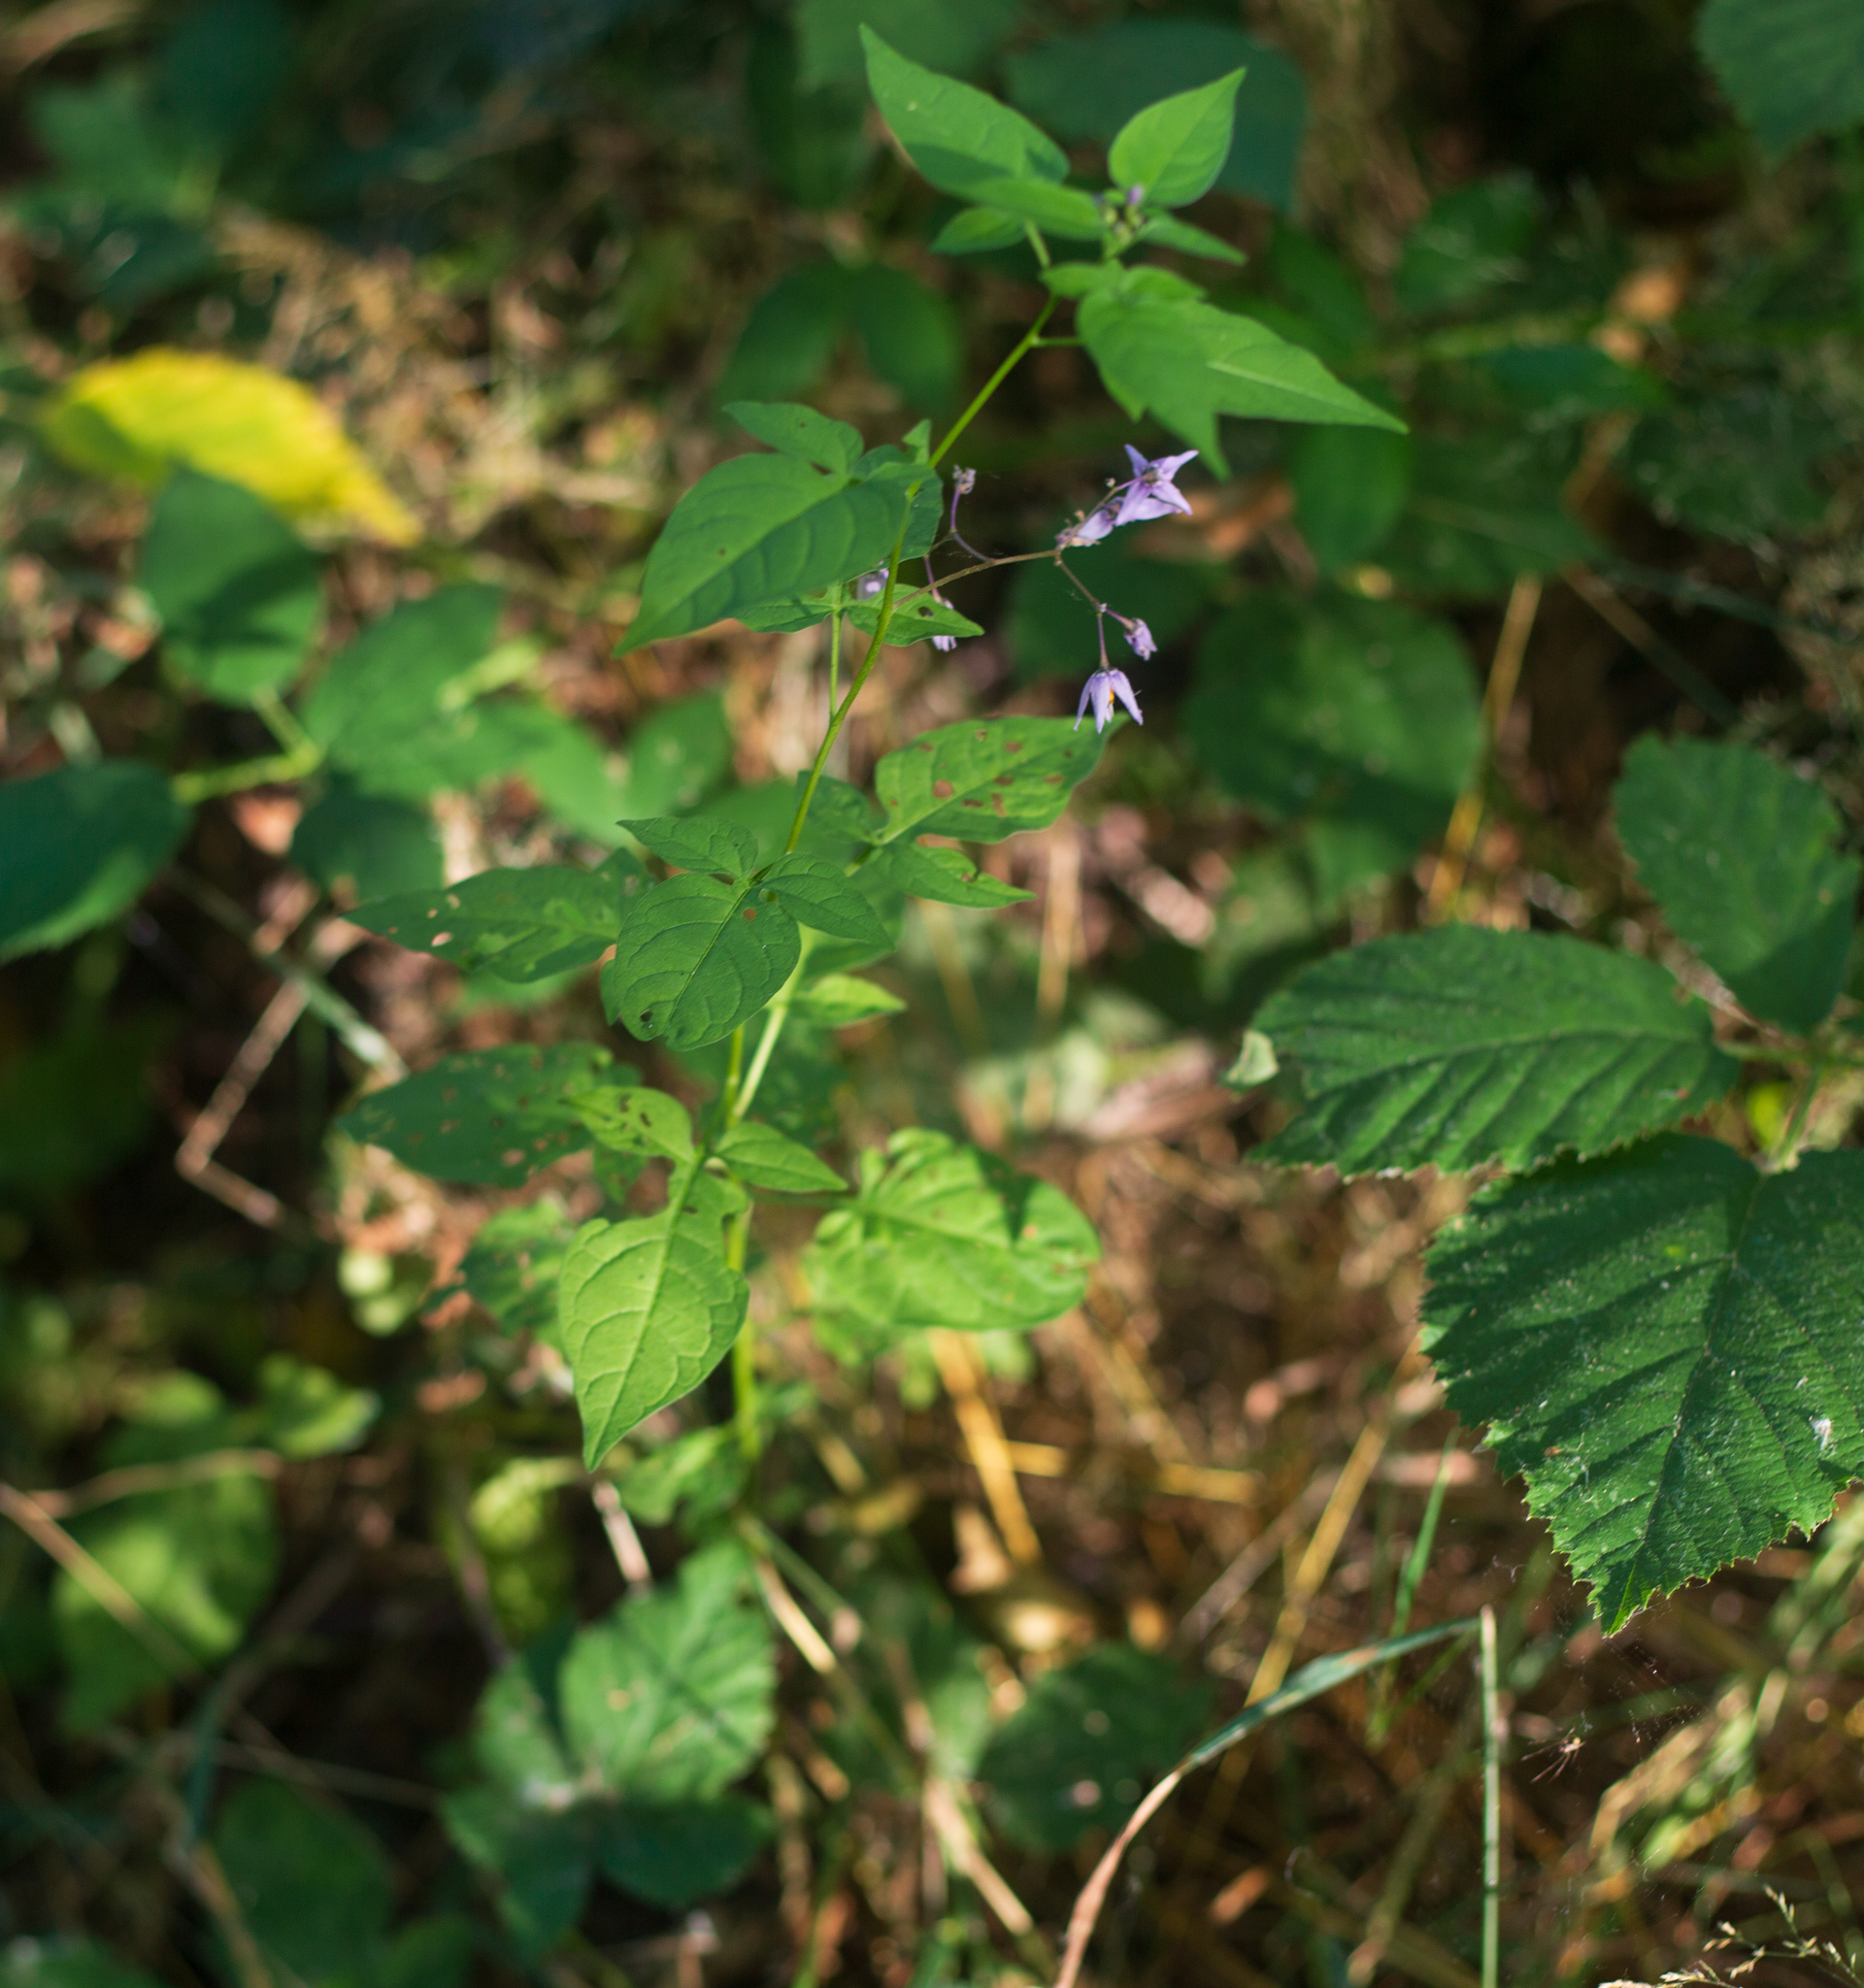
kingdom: Plantae
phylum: Tracheophyta
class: Magnoliopsida
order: Solanales
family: Solanaceae
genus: Solanum
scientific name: Solanum dulcamara
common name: Climbing nightshade
